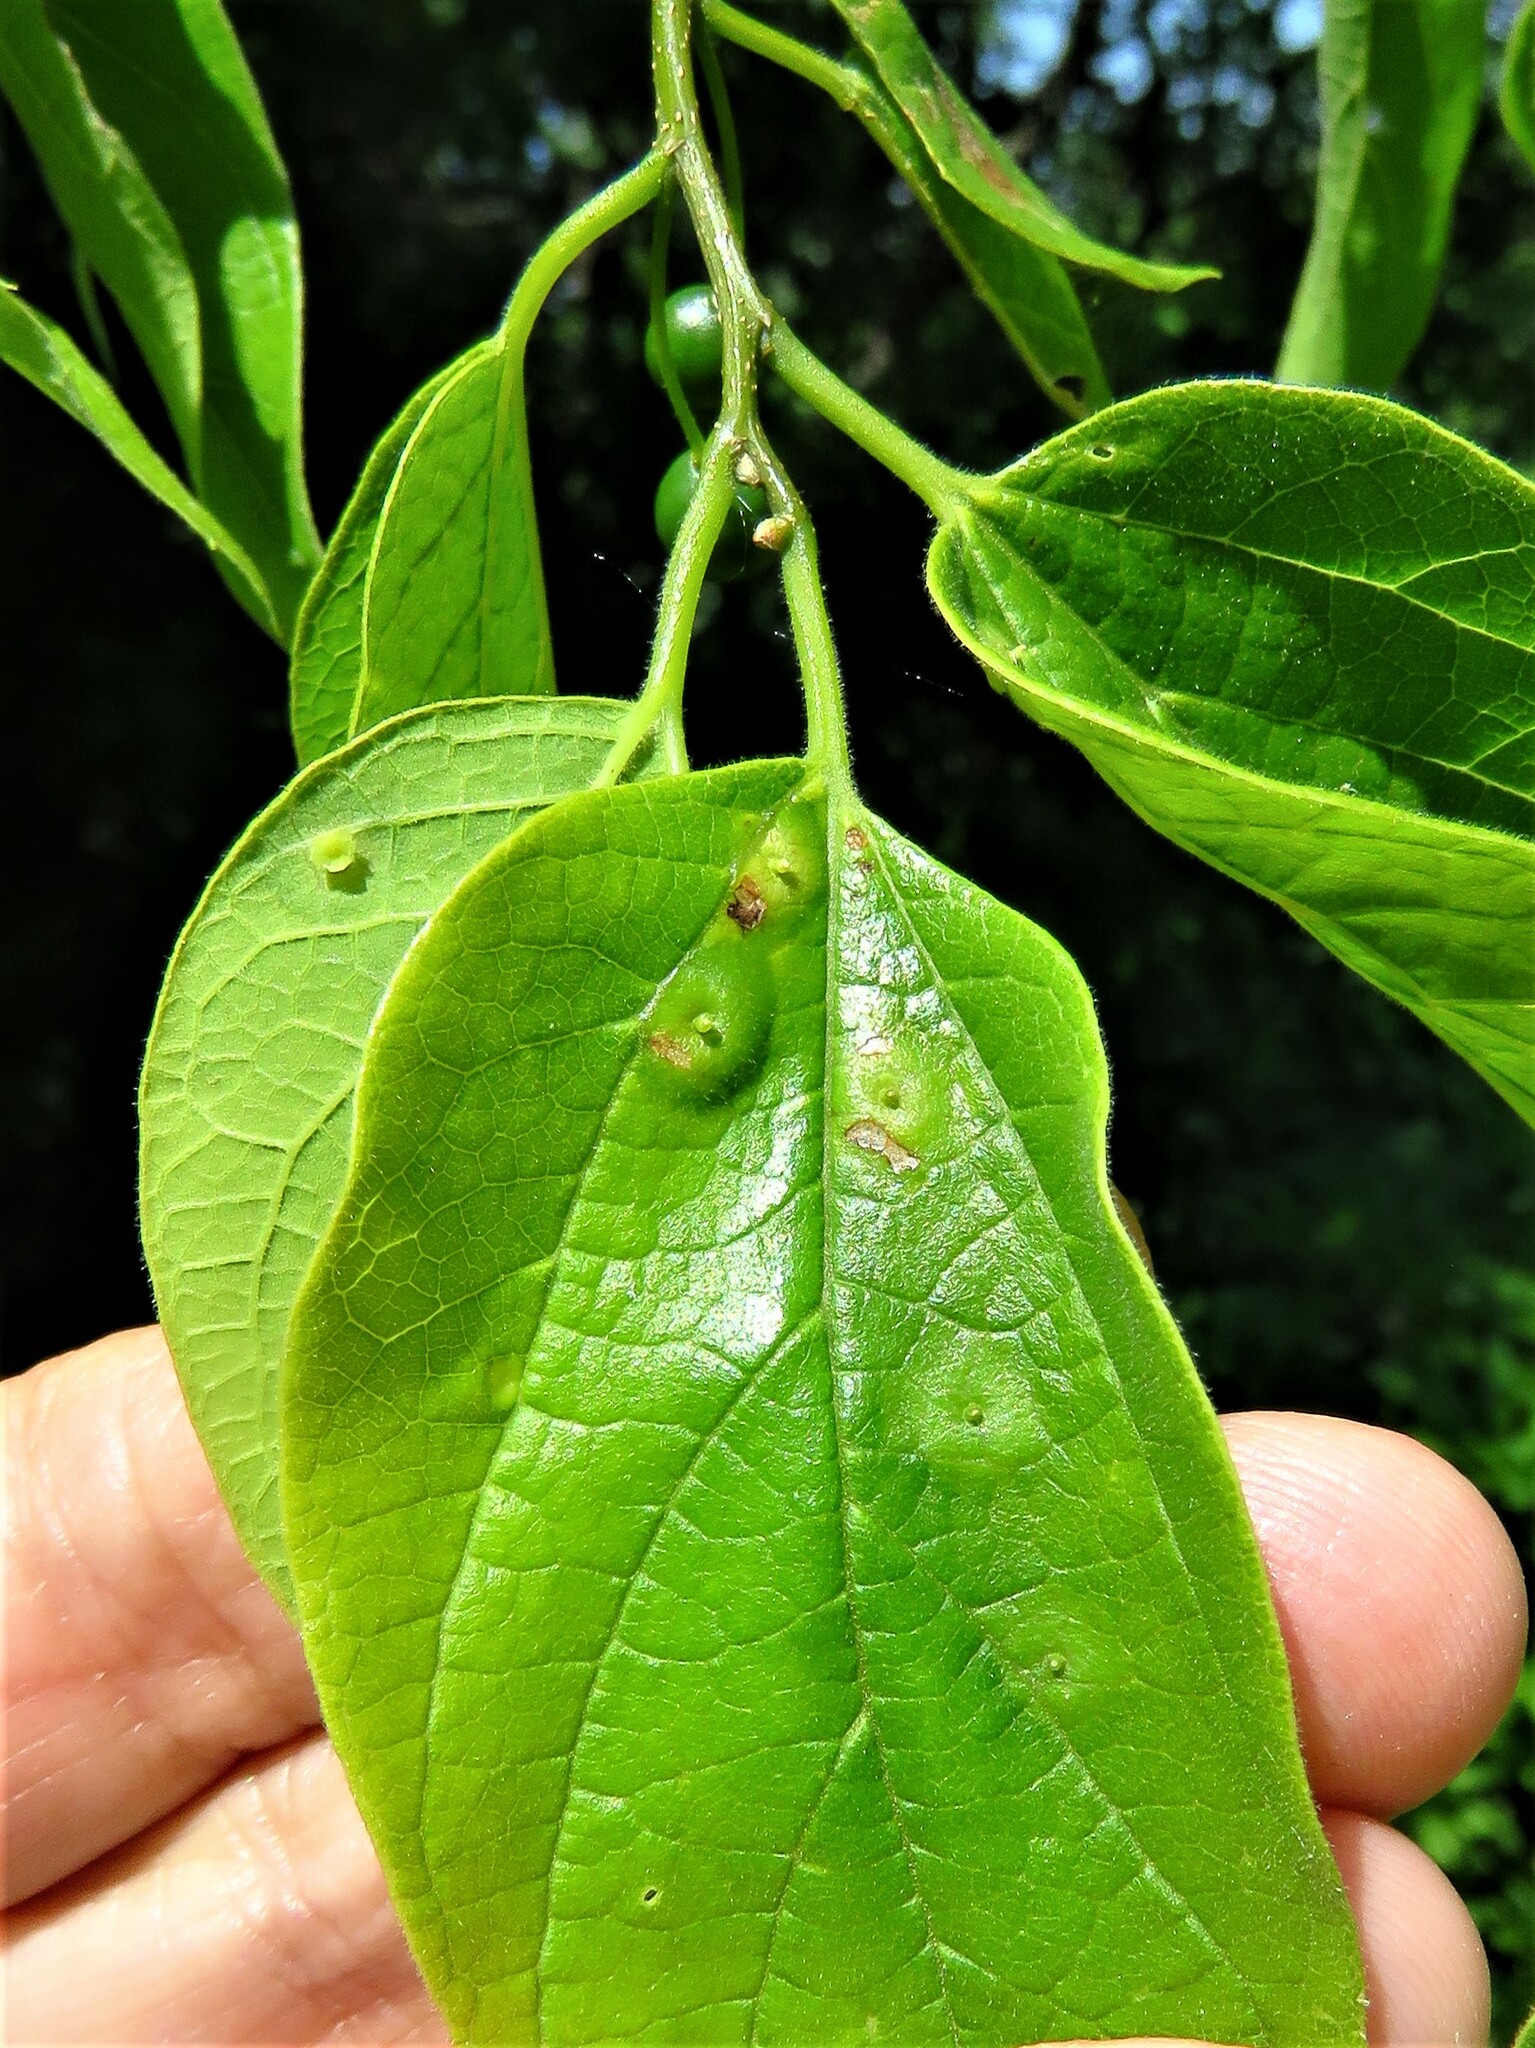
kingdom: Animalia
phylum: Arthropoda
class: Insecta
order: Hemiptera
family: Aphalaridae
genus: Pachypsylla
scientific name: Pachypsylla celtidisasterisca
